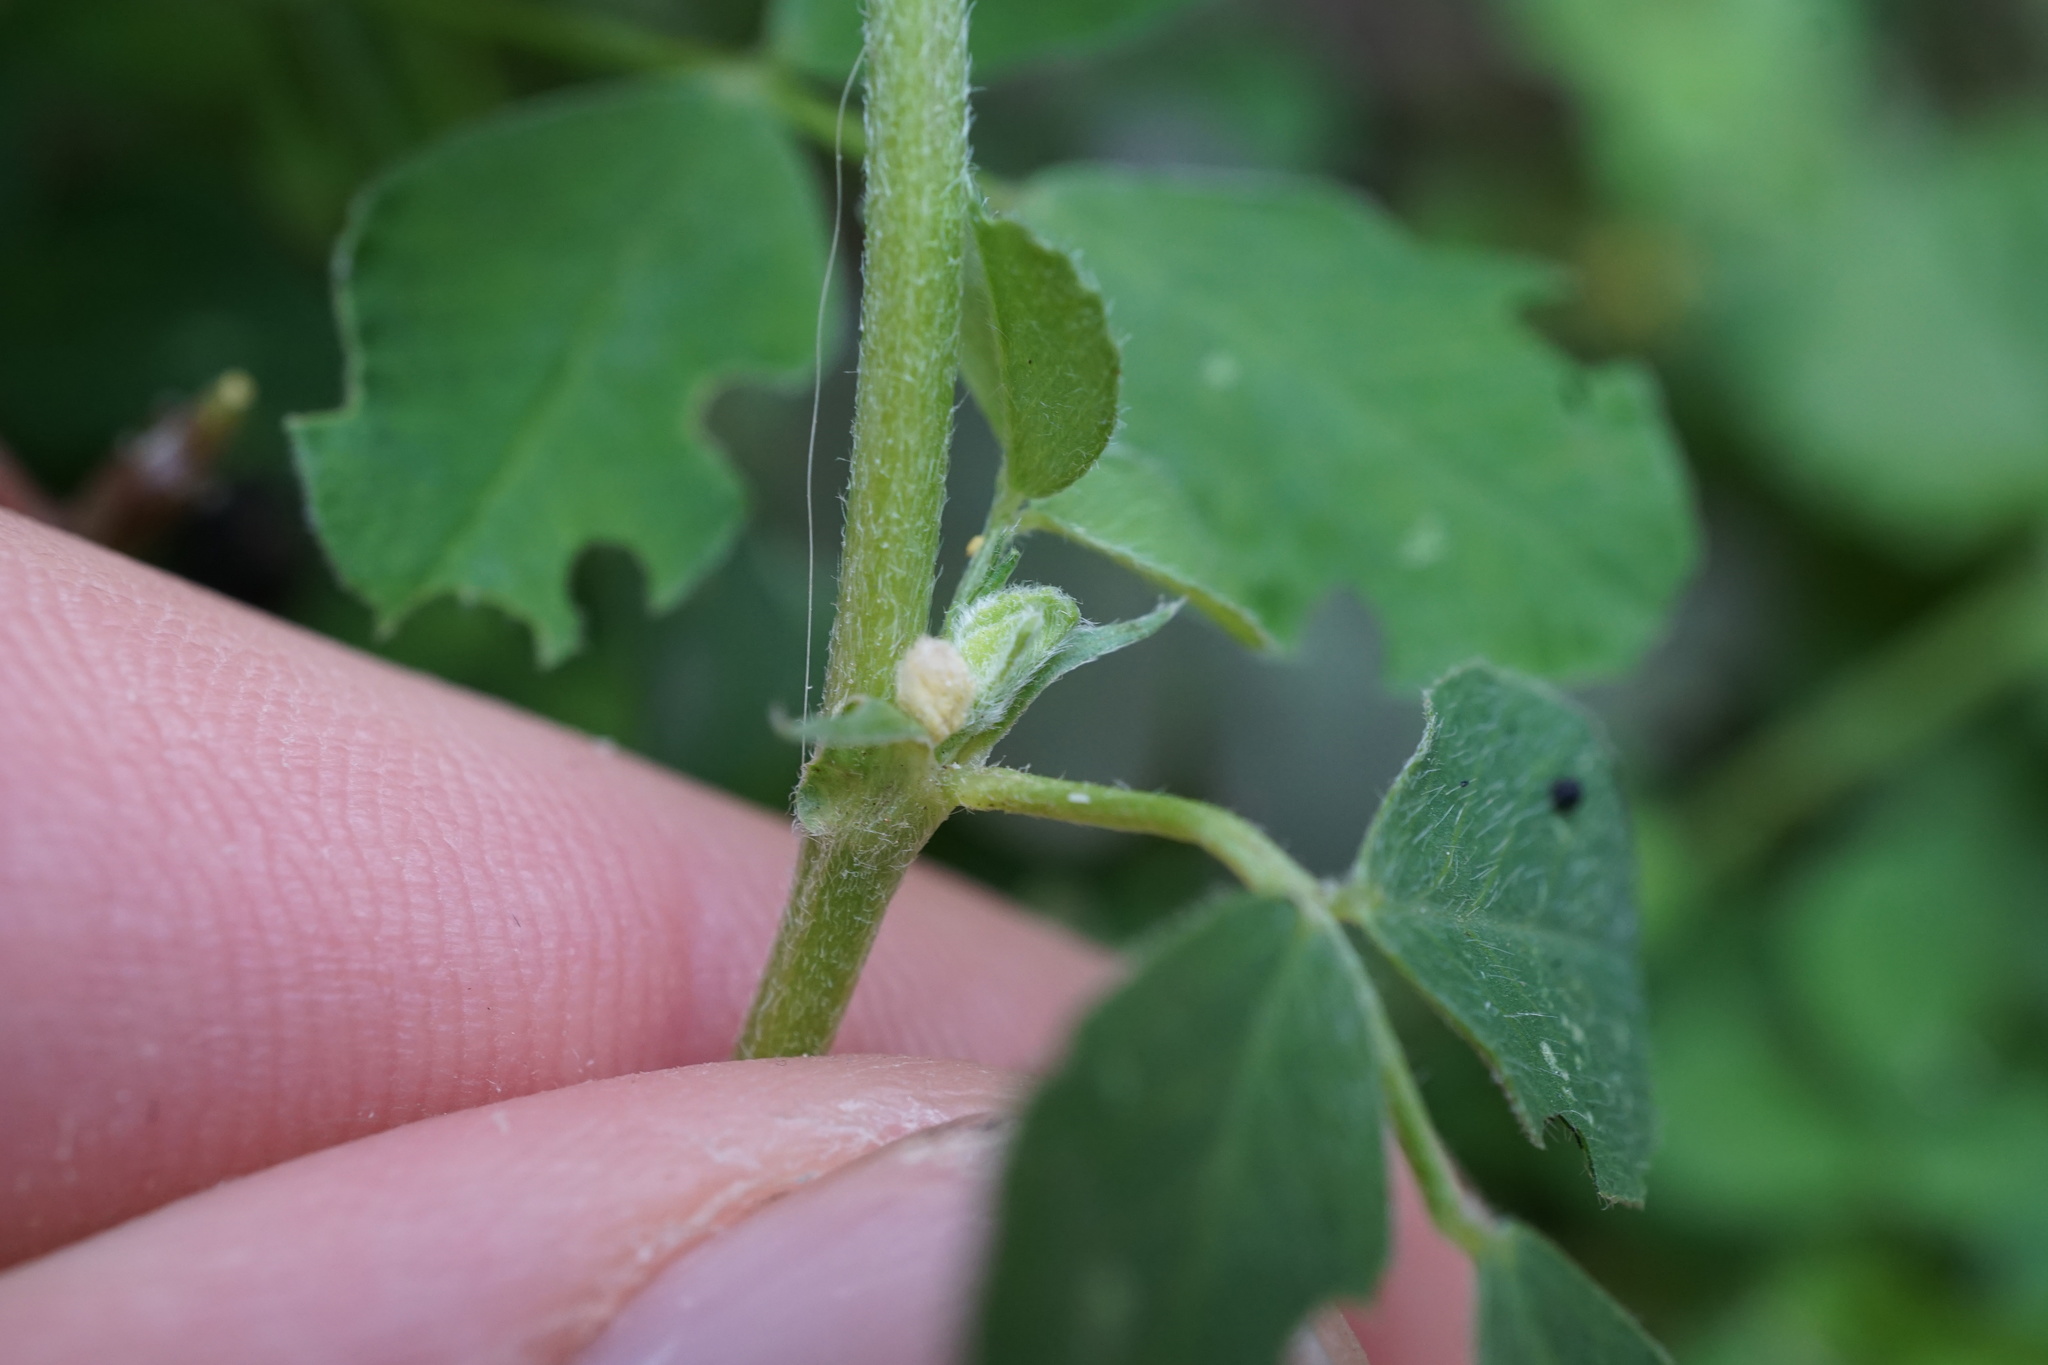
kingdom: Plantae
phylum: Tracheophyta
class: Magnoliopsida
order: Fabales
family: Fabaceae
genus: Medicago
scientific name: Medicago lupulina
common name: Black medick
